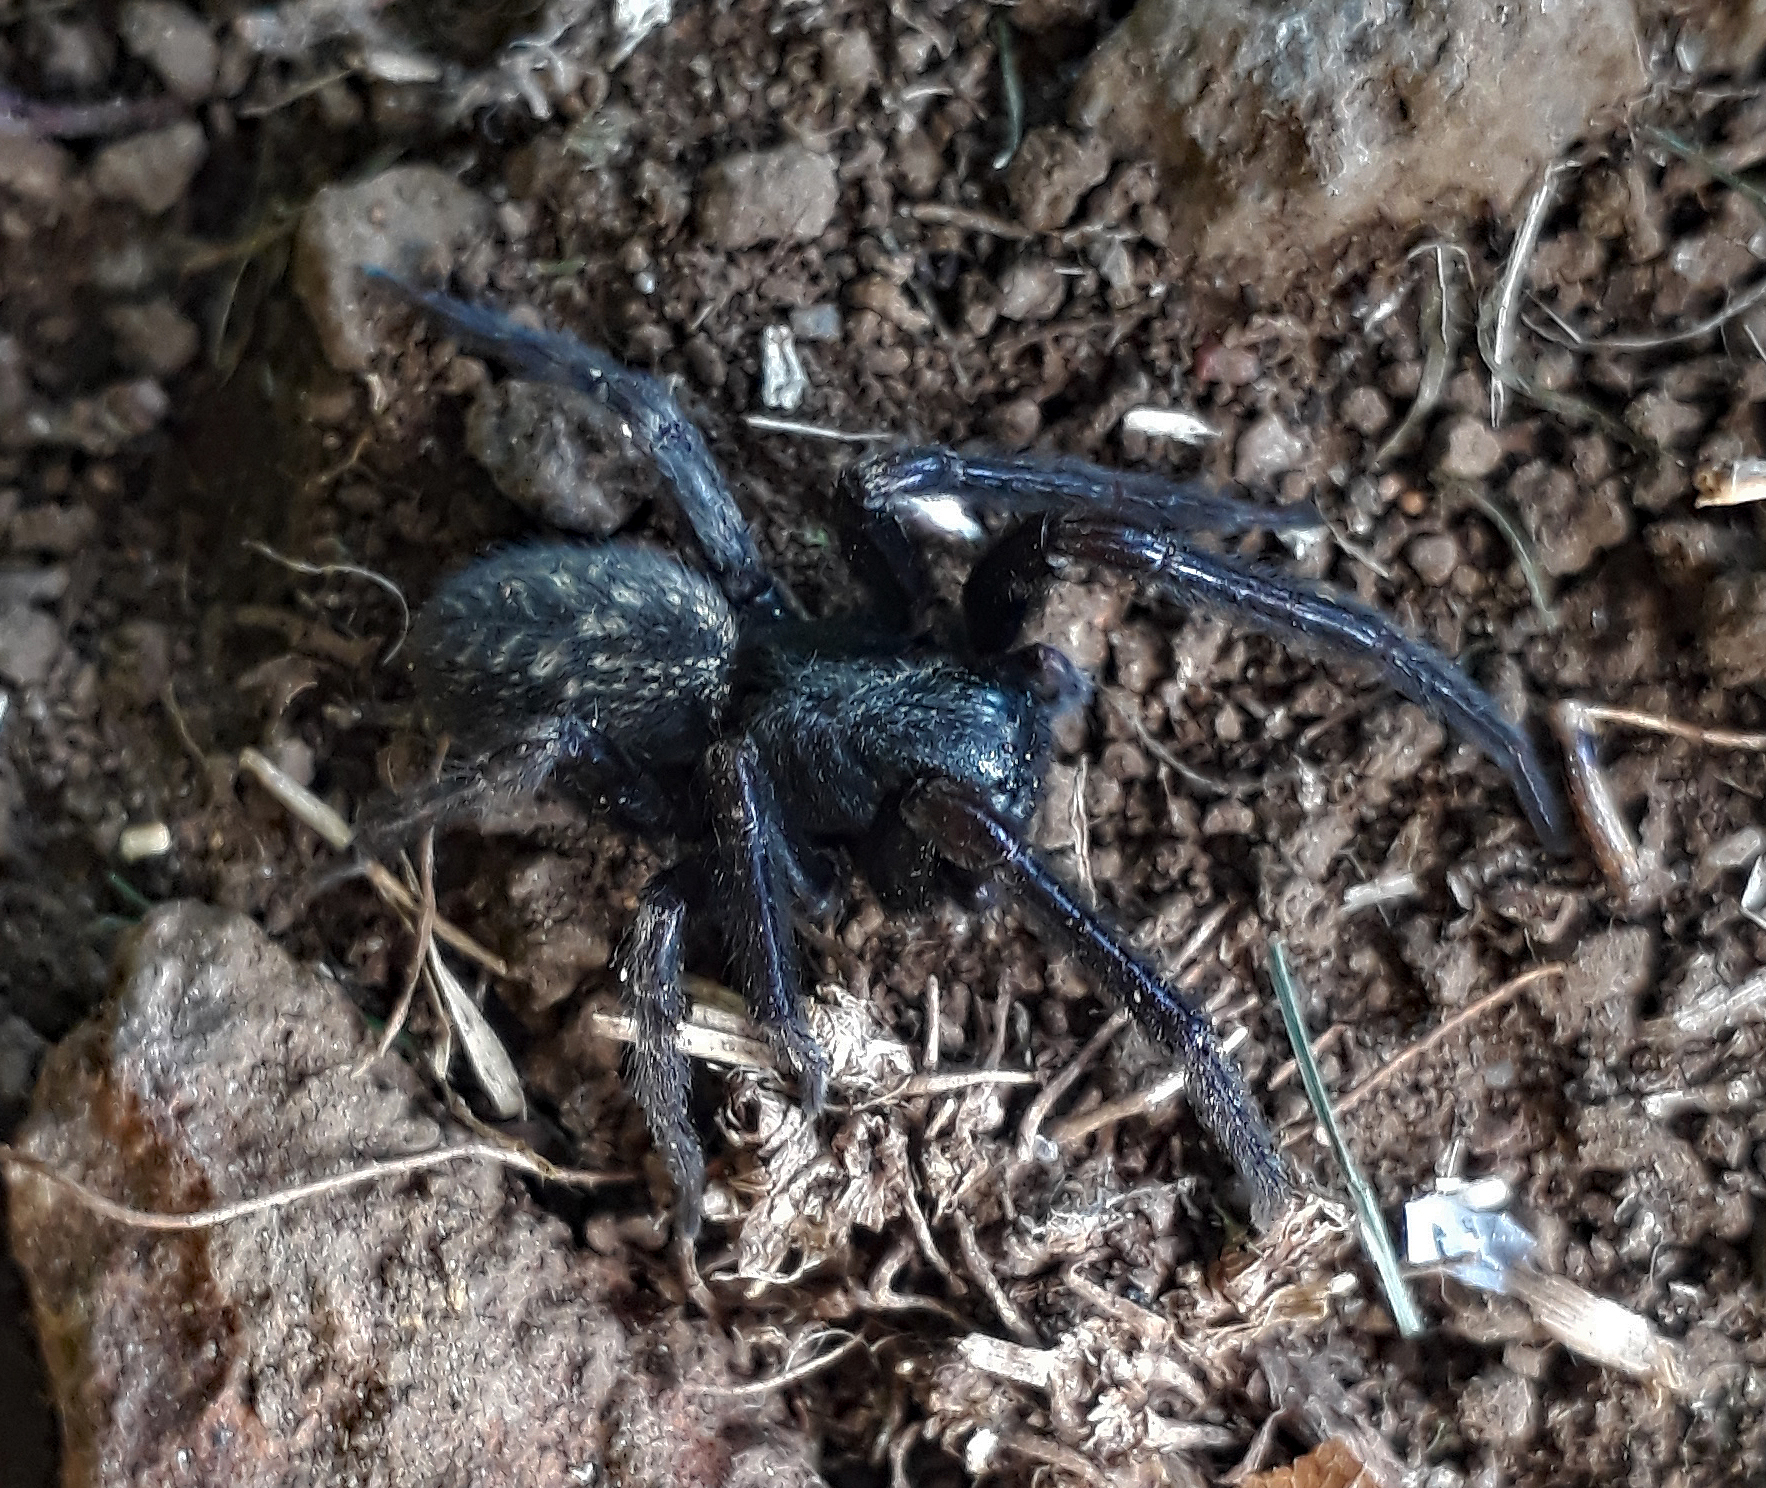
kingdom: Animalia
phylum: Arthropoda
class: Arachnida
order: Araneae
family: Desidae
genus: Badumna
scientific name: Badumna insignis
